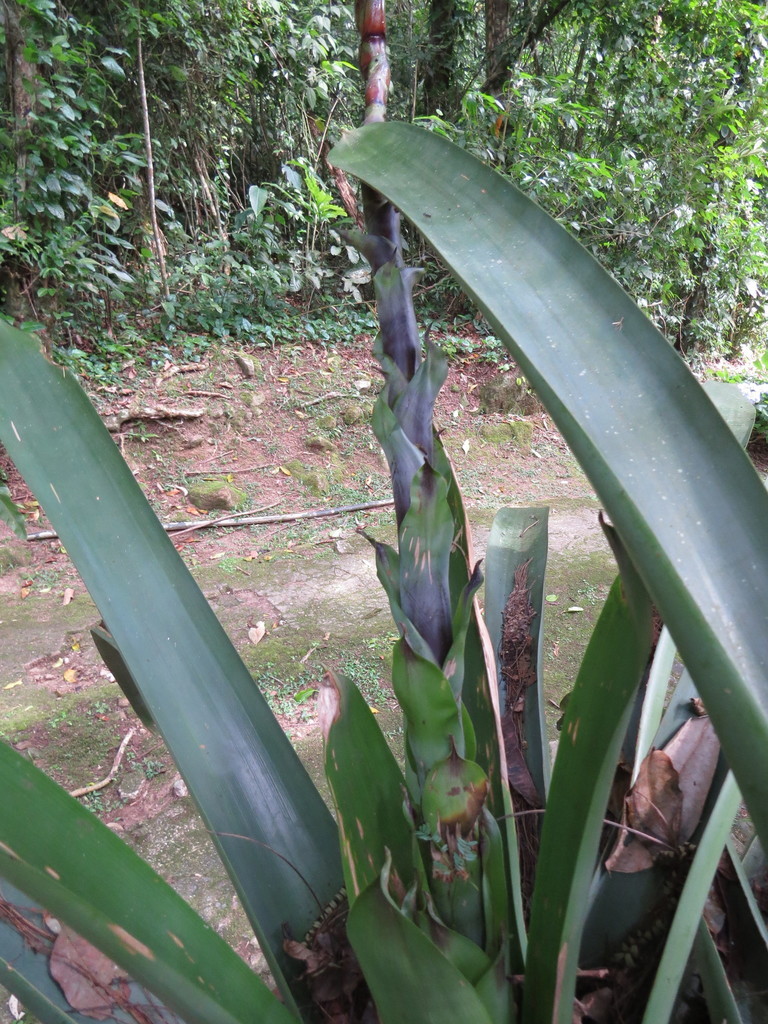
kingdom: Plantae
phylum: Tracheophyta
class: Liliopsida
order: Poales
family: Bromeliaceae
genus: Vriesea
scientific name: Vriesea bituminosa
